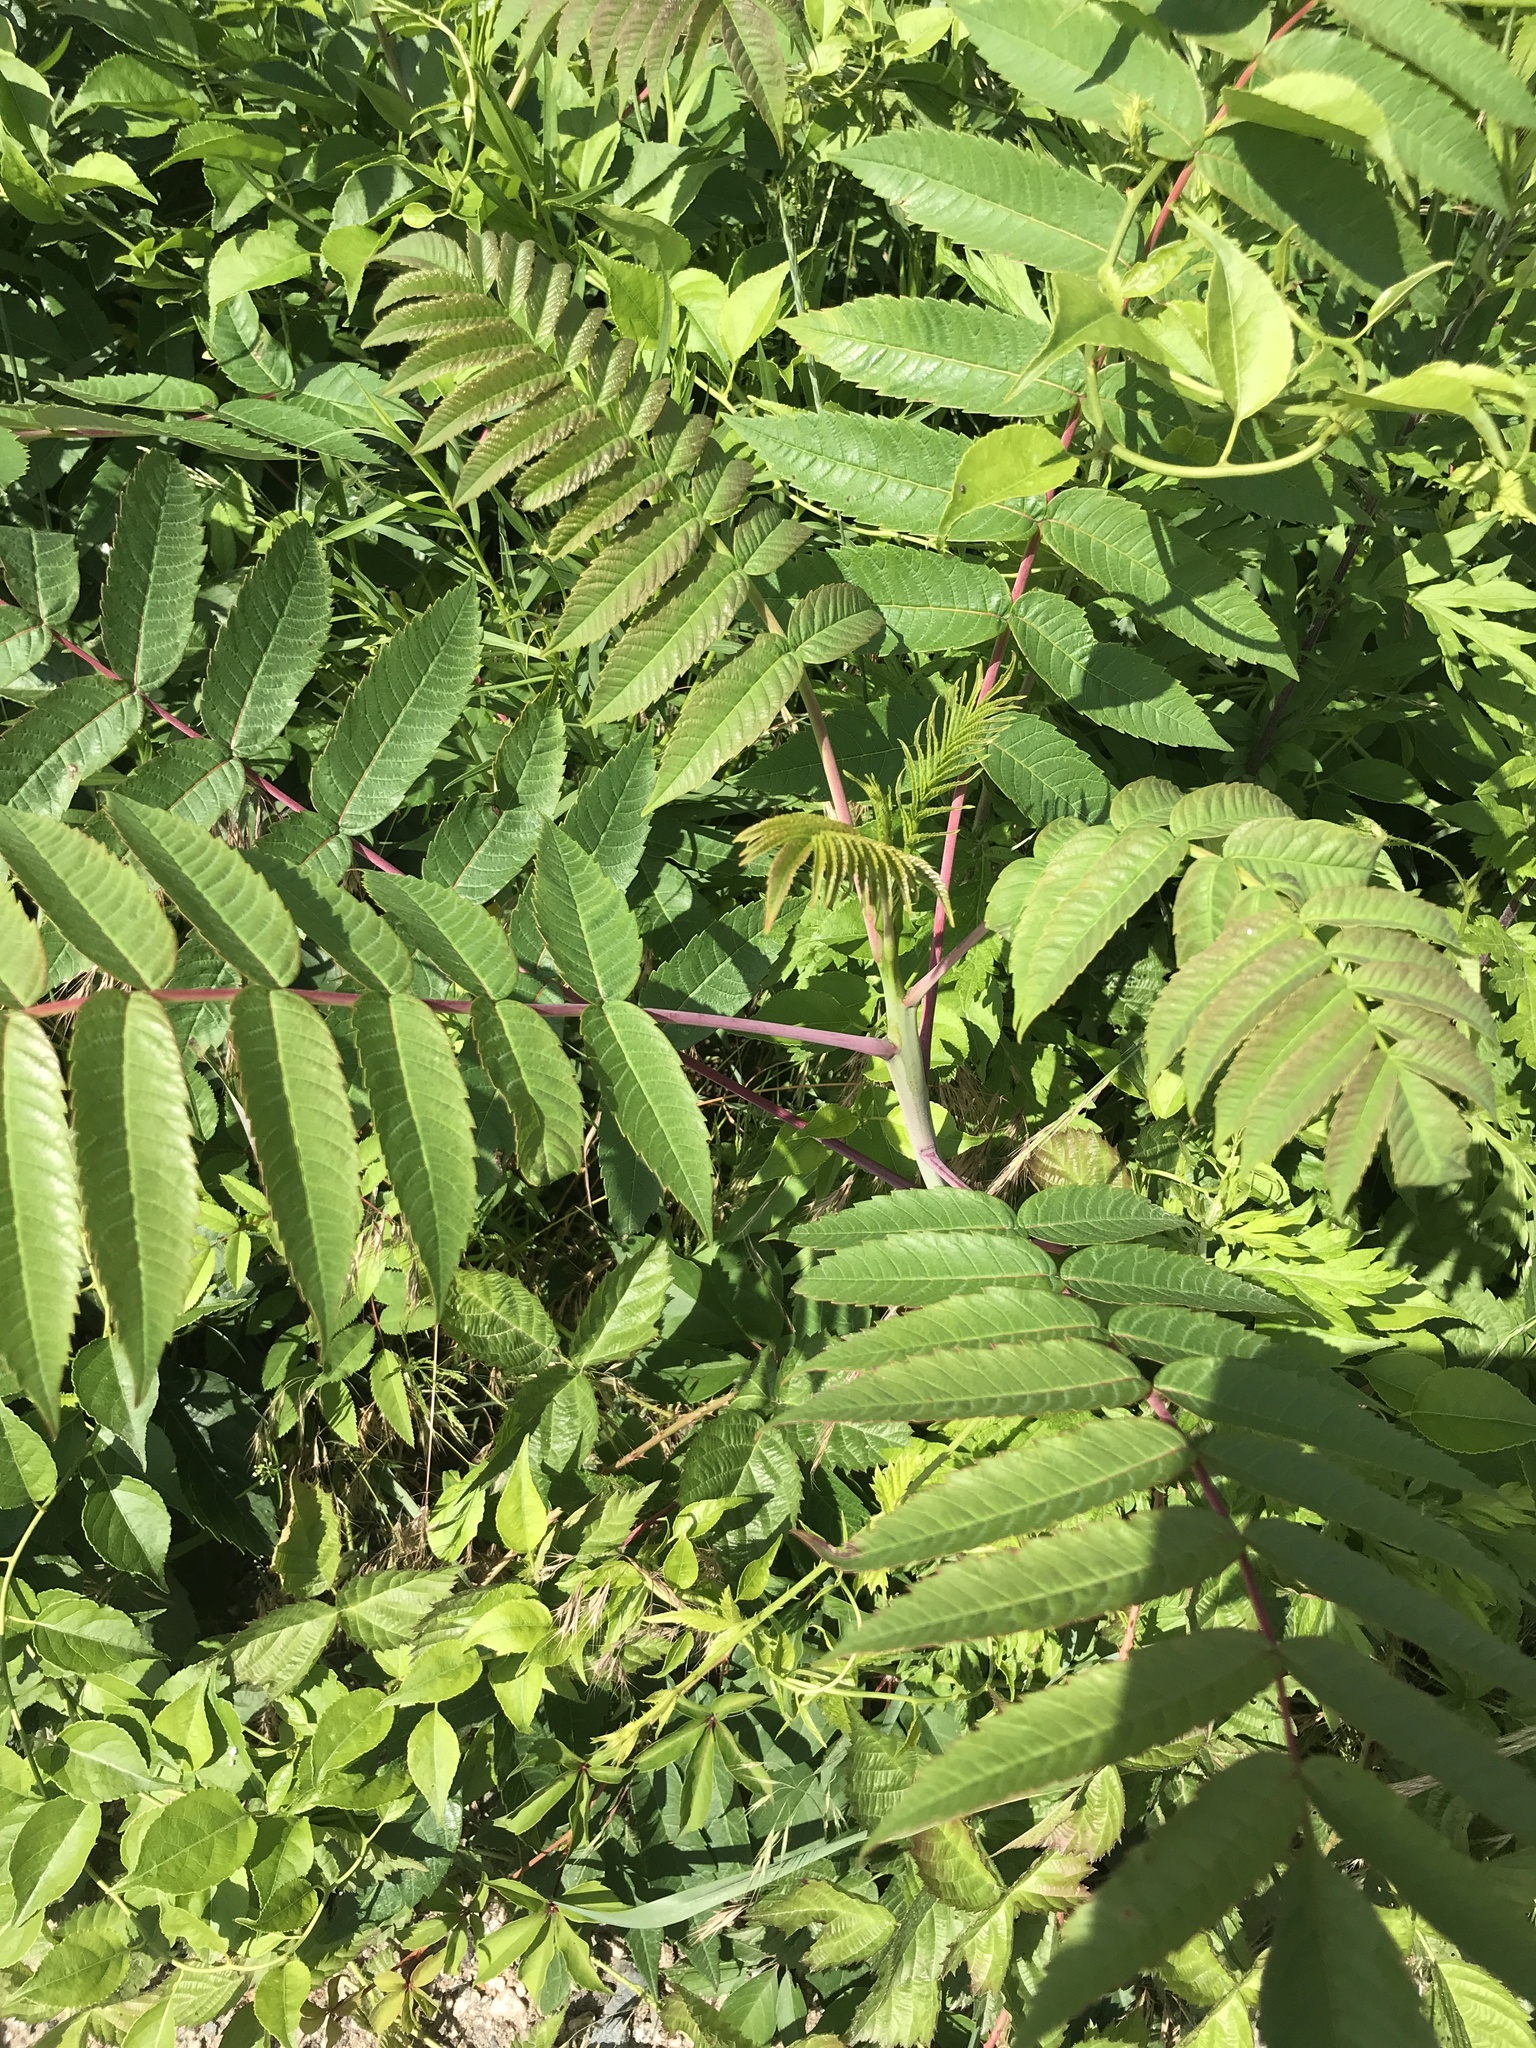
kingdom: Plantae
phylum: Tracheophyta
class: Magnoliopsida
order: Sapindales
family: Anacardiaceae
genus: Rhus
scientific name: Rhus glabra
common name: Scarlet sumac
